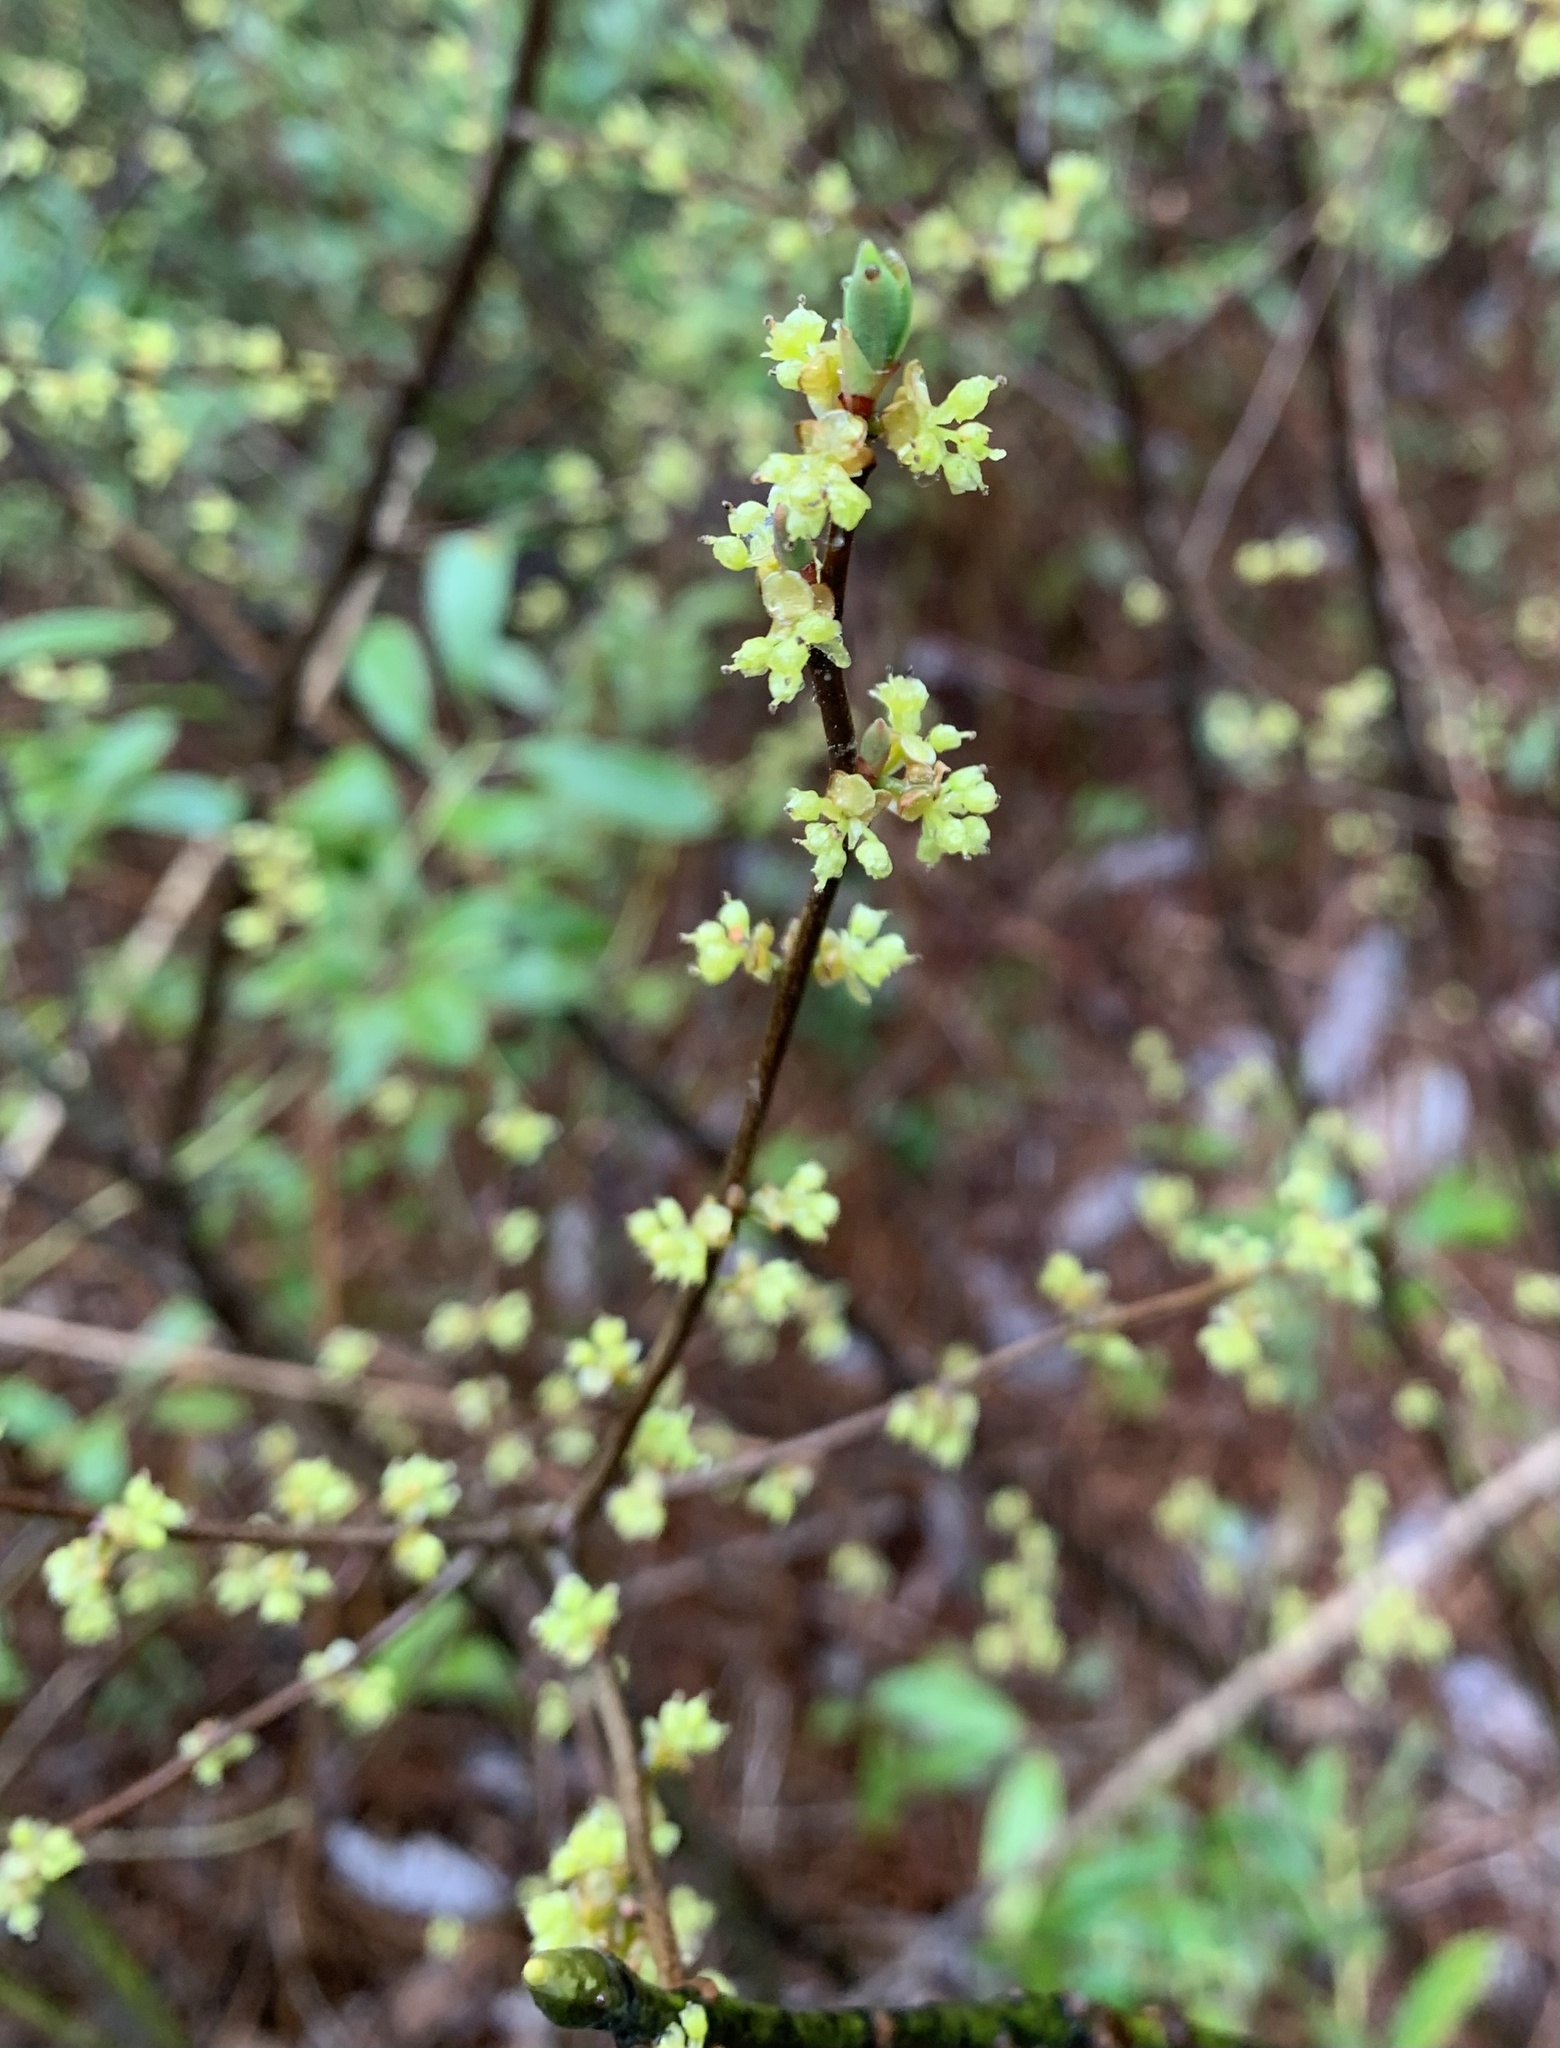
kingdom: Plantae
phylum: Tracheophyta
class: Magnoliopsida
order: Laurales
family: Lauraceae
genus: Lindera
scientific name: Lindera subcoriacea
